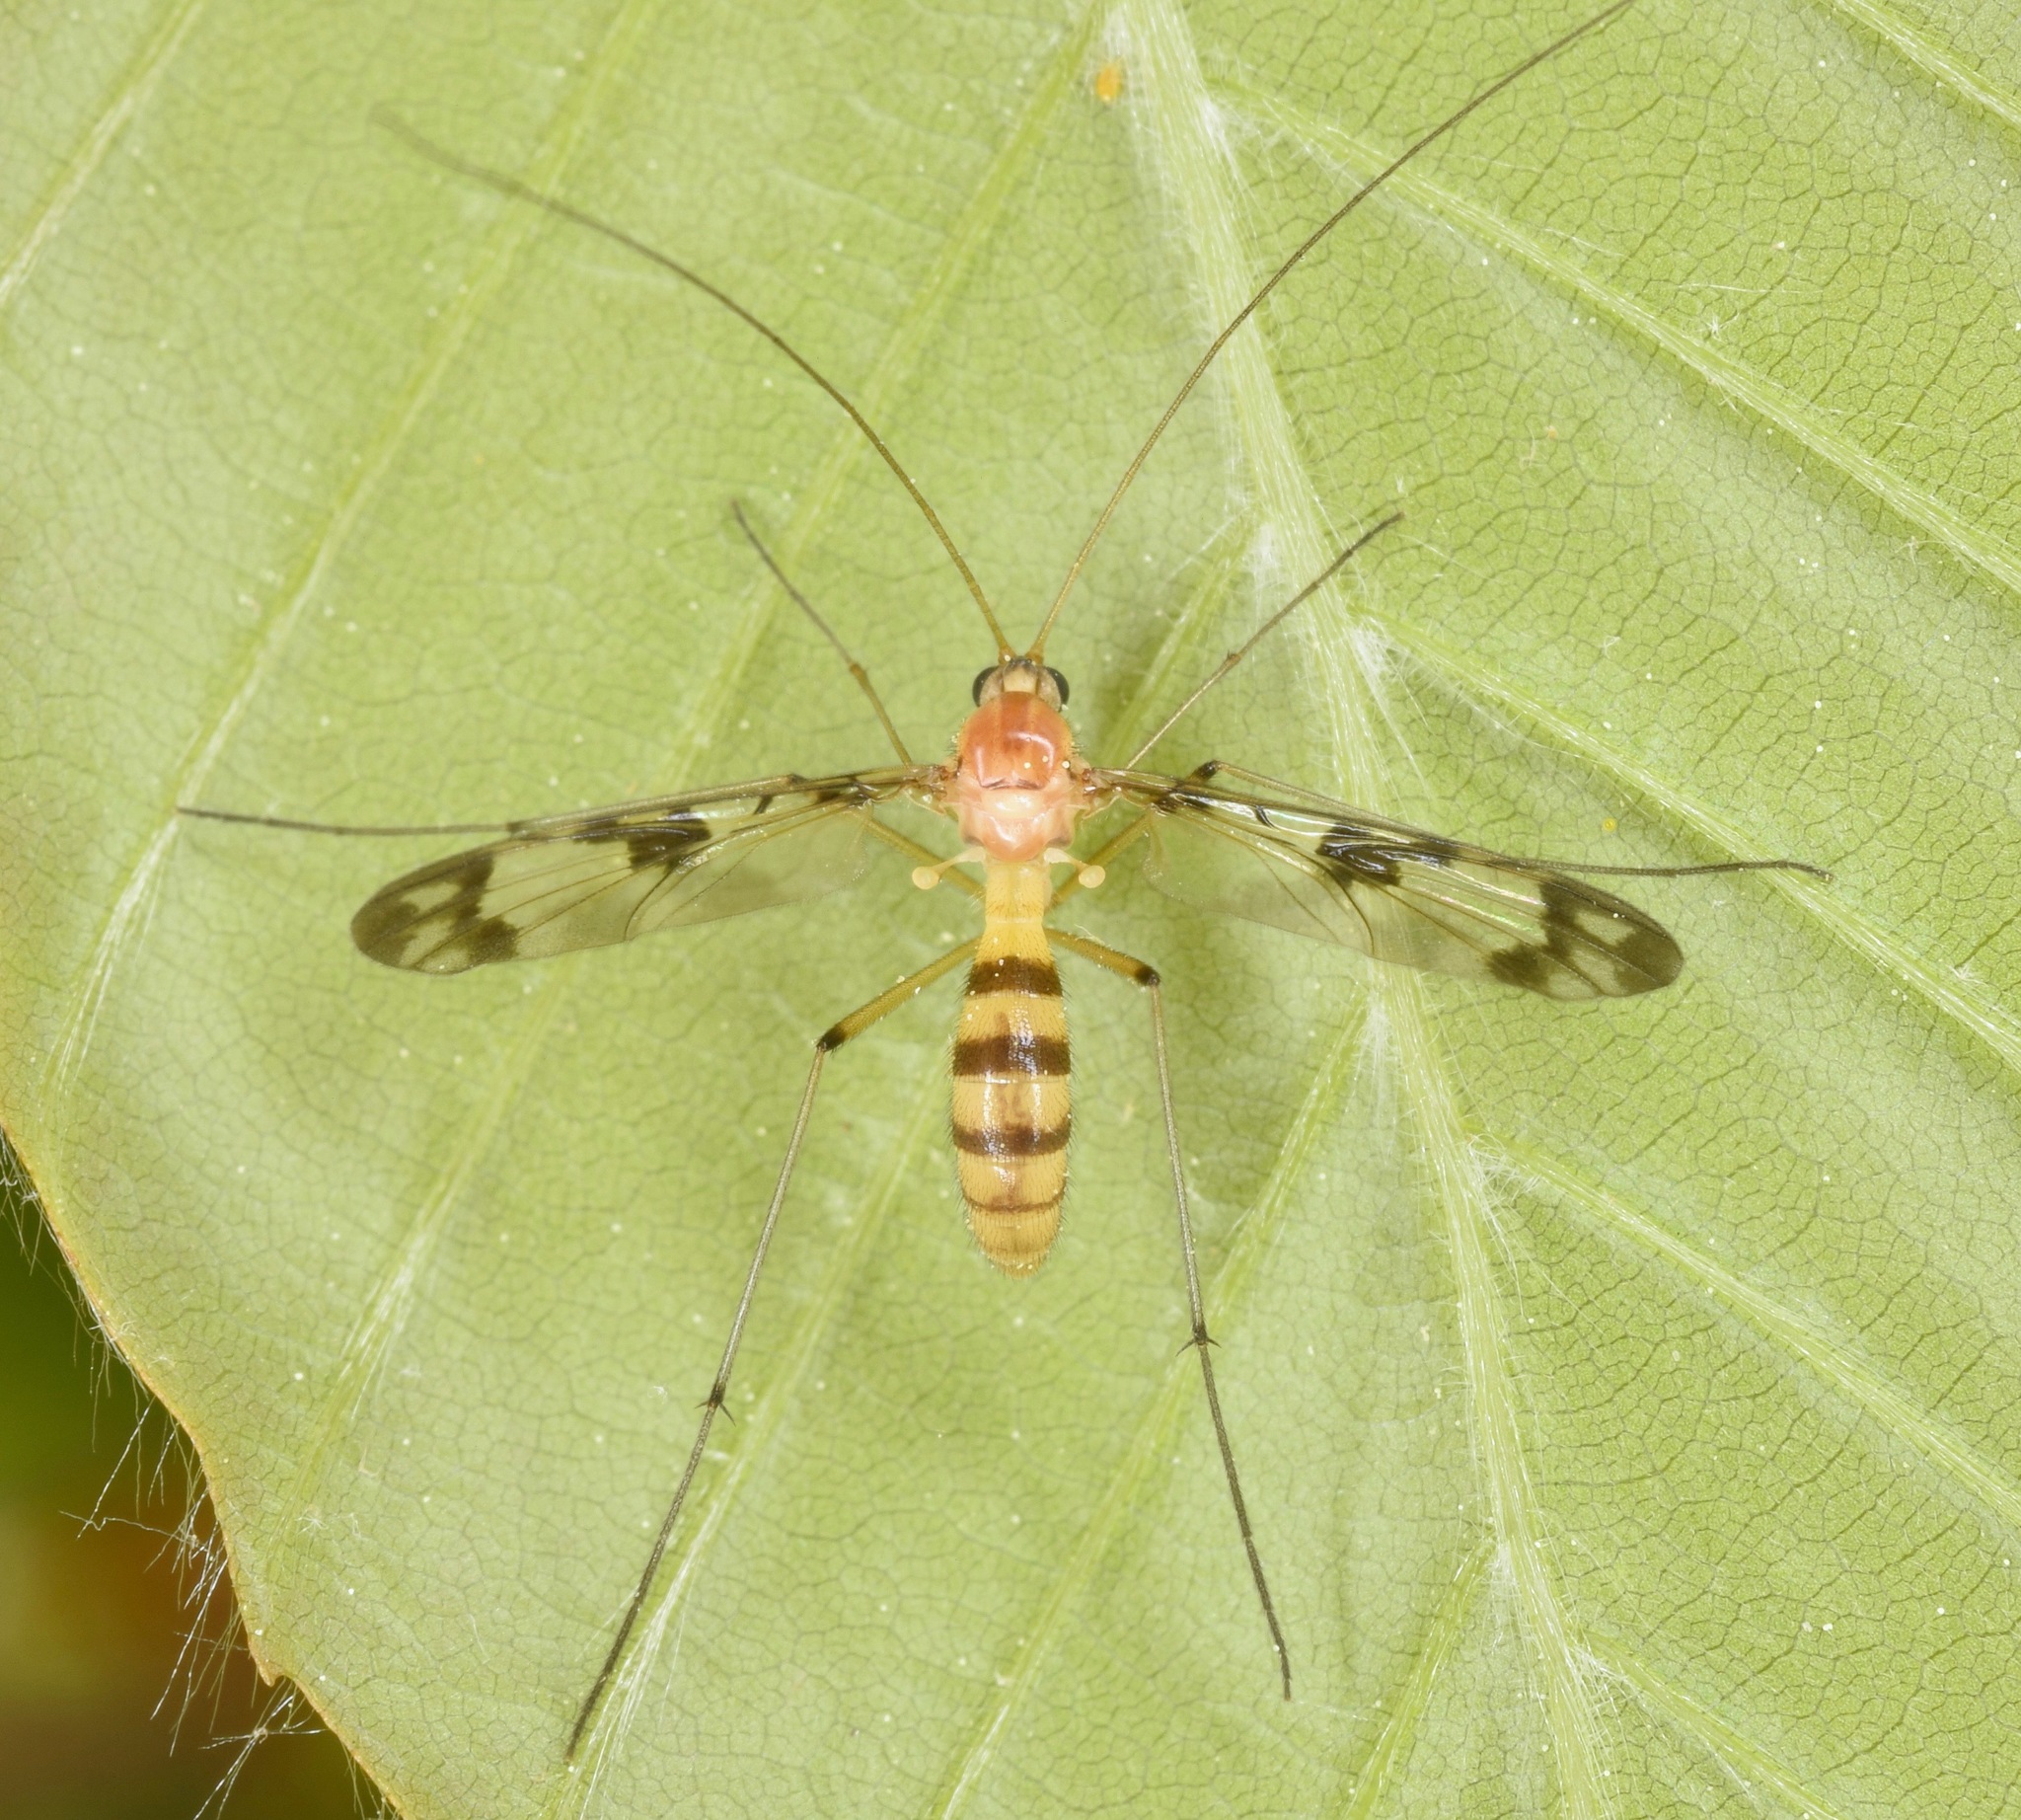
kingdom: Animalia
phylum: Arthropoda
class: Insecta
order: Diptera
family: Keroplatidae
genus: Macrocera
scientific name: Macrocera
